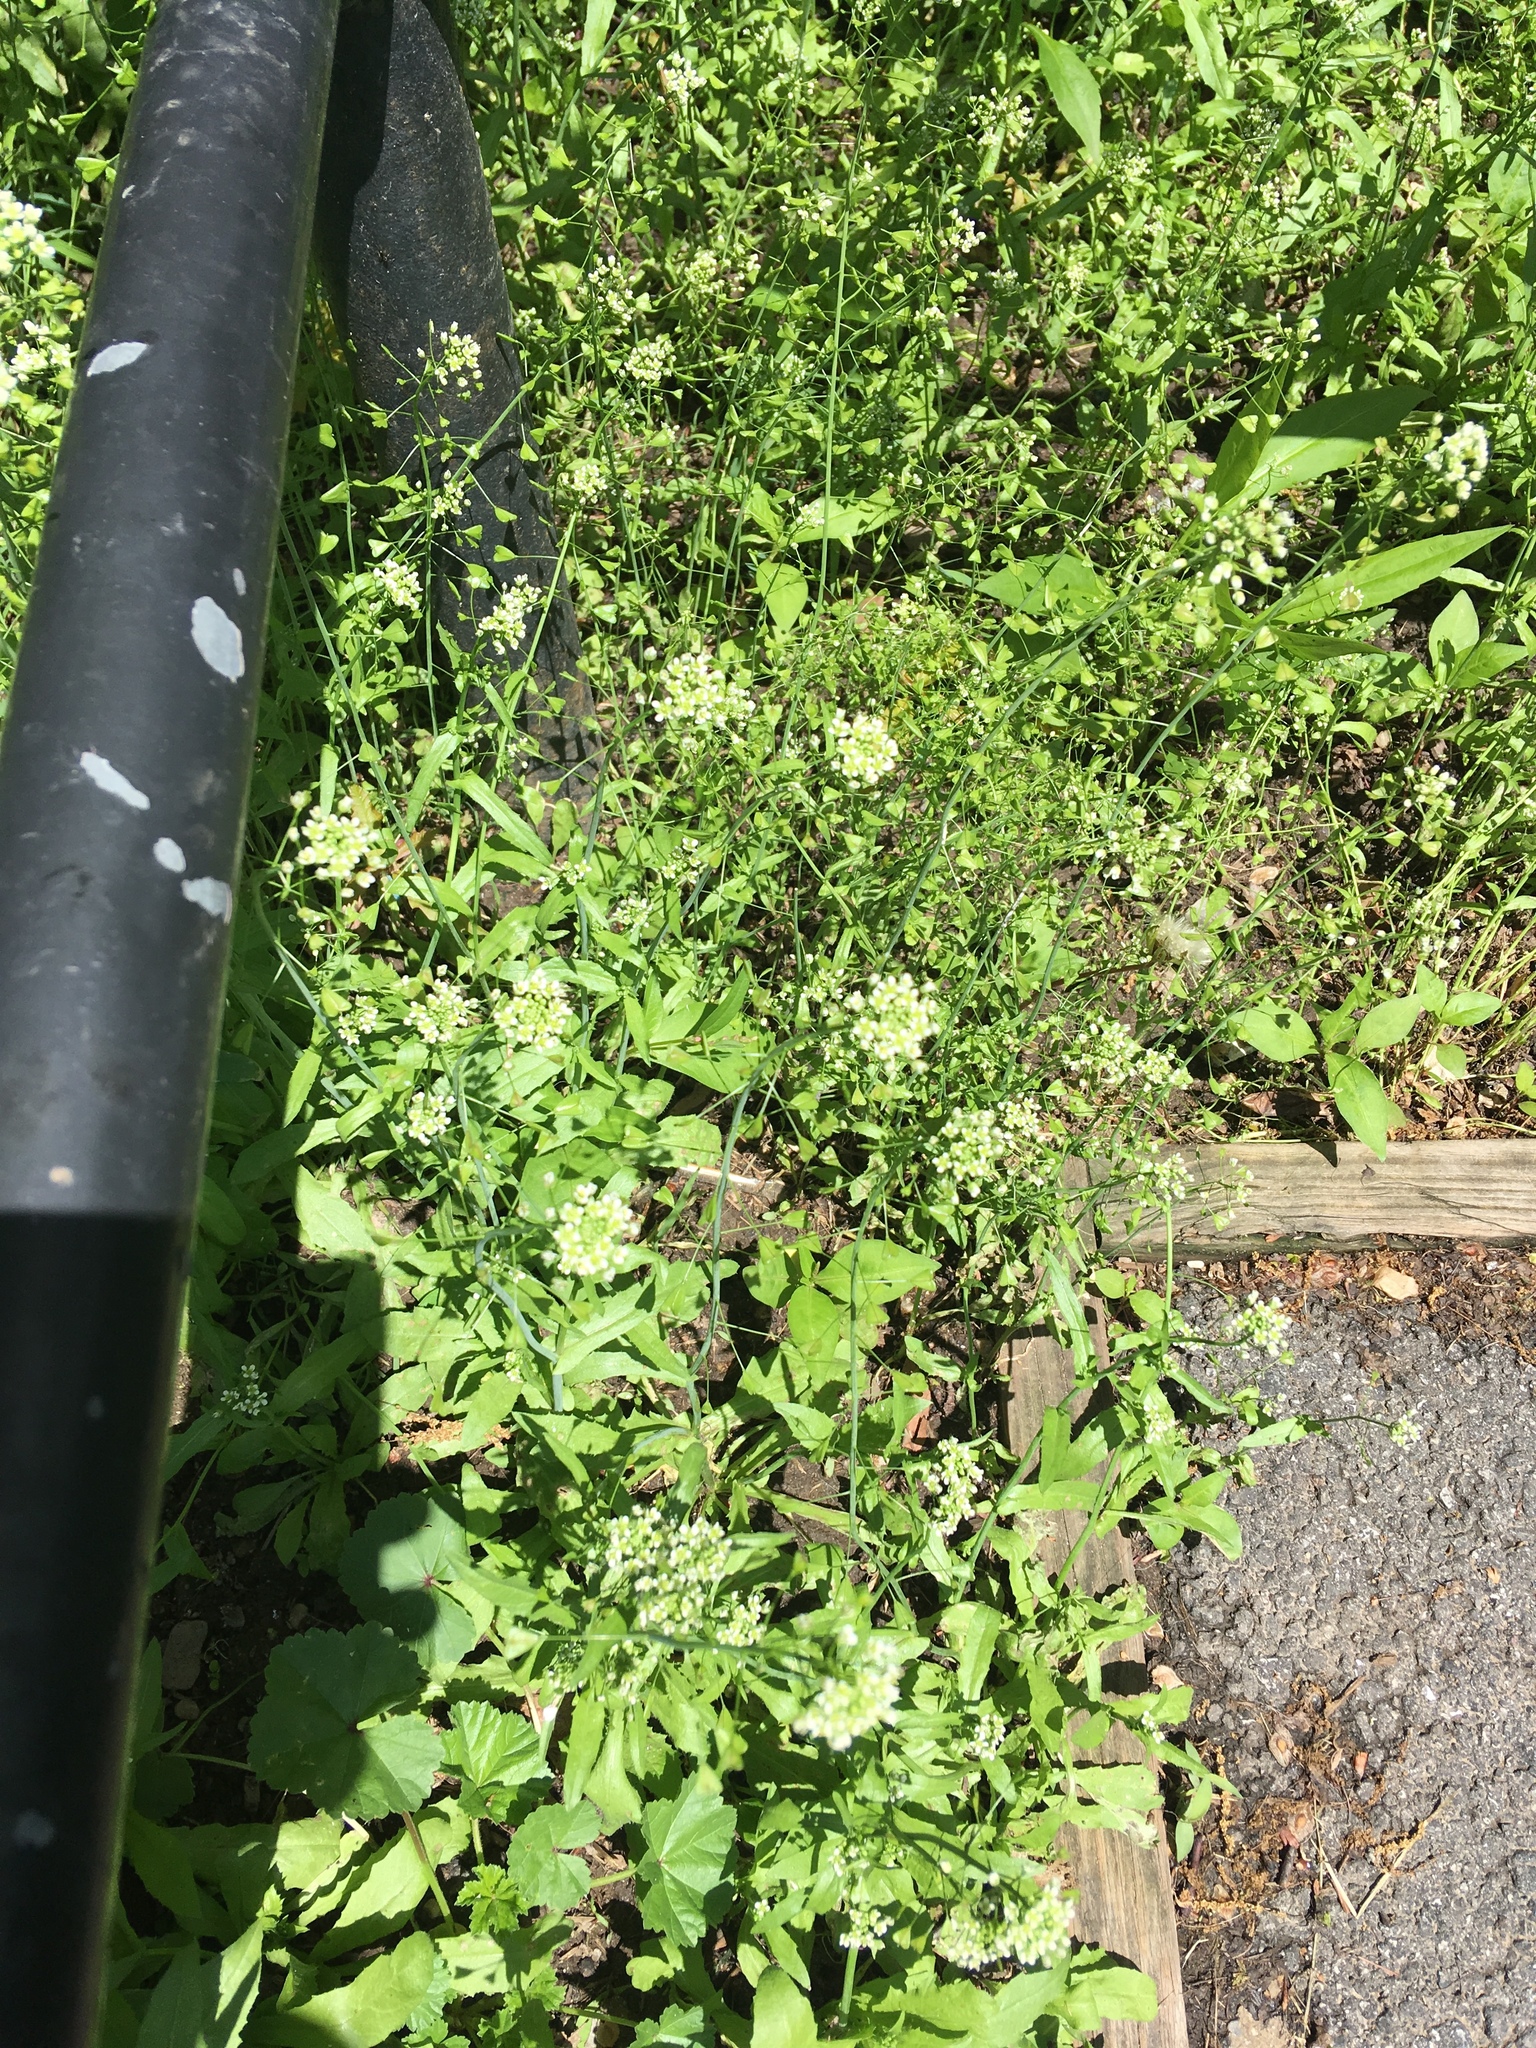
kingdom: Plantae
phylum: Tracheophyta
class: Magnoliopsida
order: Brassicales
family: Brassicaceae
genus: Capsella
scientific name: Capsella bursa-pastoris
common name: Shepherd's purse
